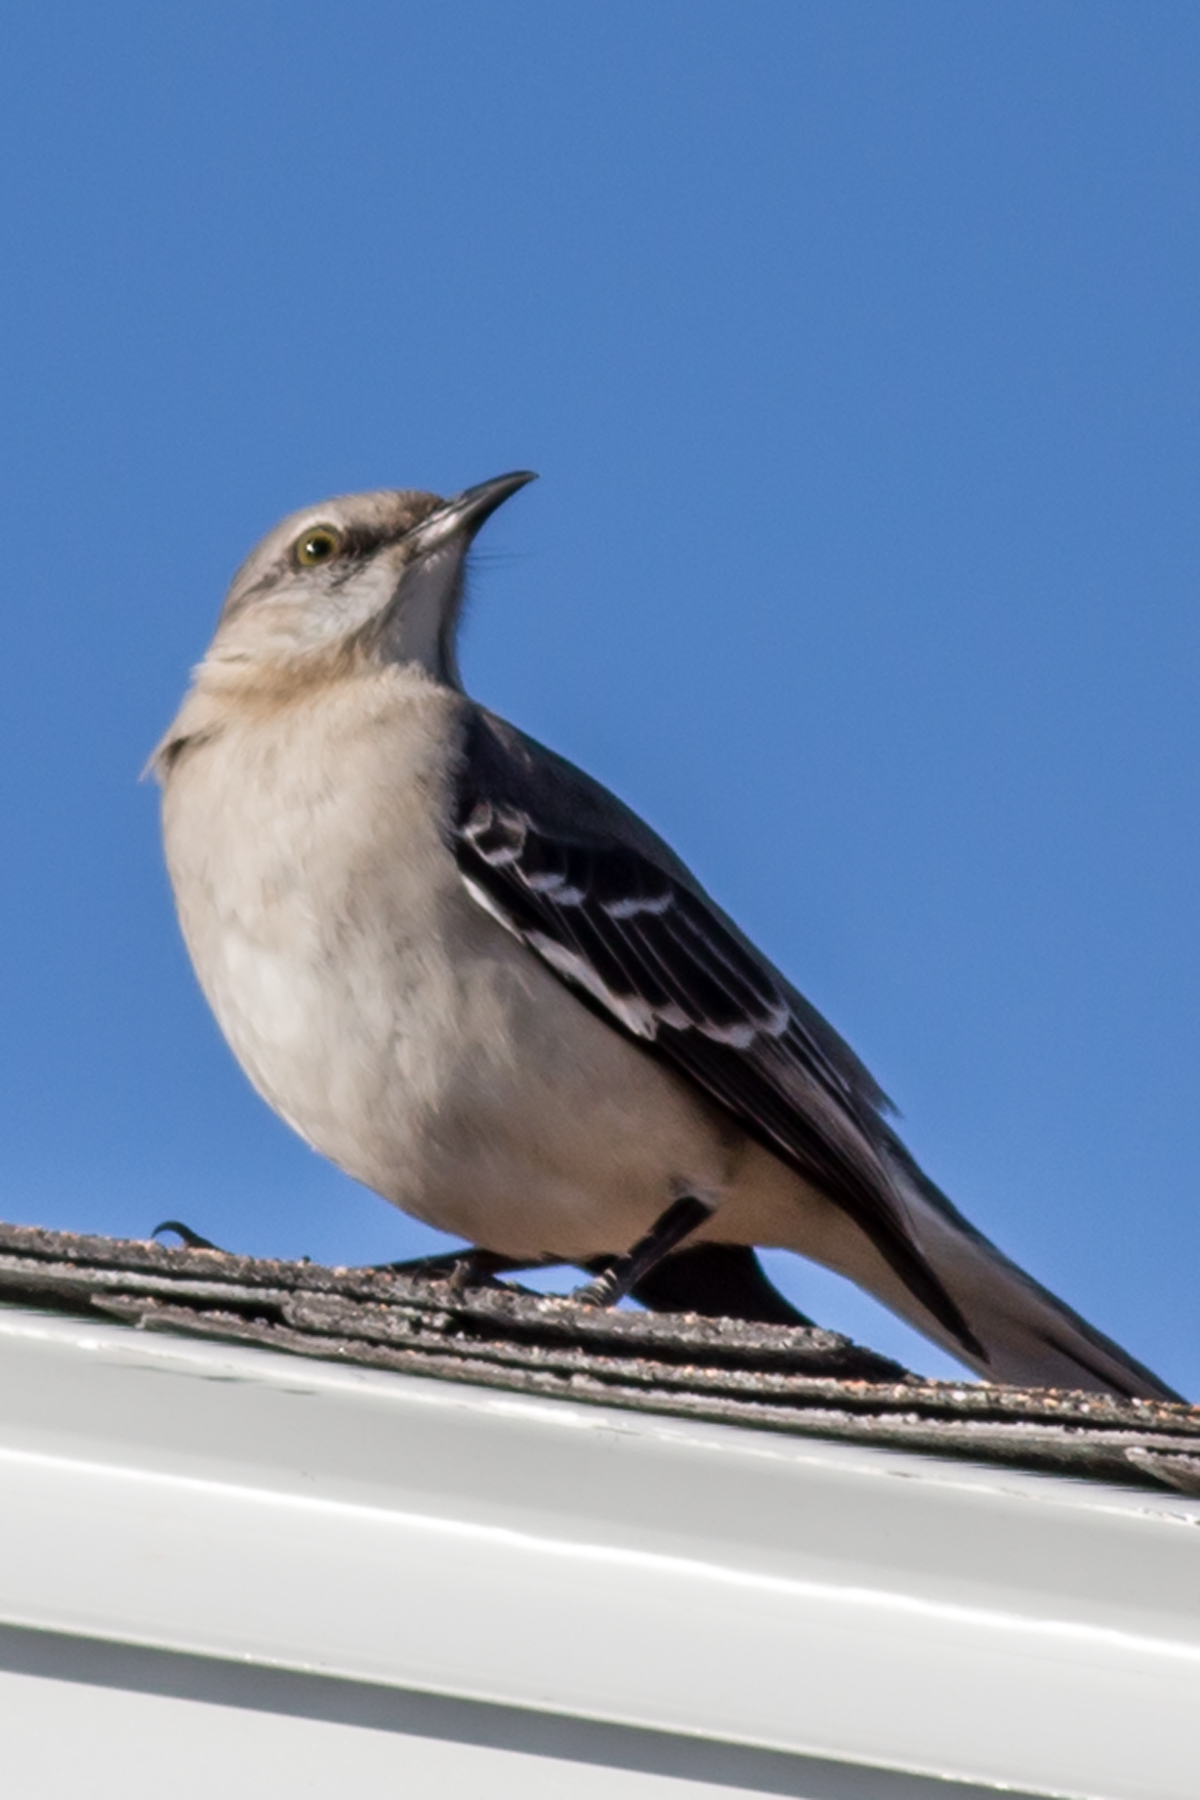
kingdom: Animalia
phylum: Chordata
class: Aves
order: Passeriformes
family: Mimidae
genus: Mimus
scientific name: Mimus polyglottos
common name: Northern mockingbird
